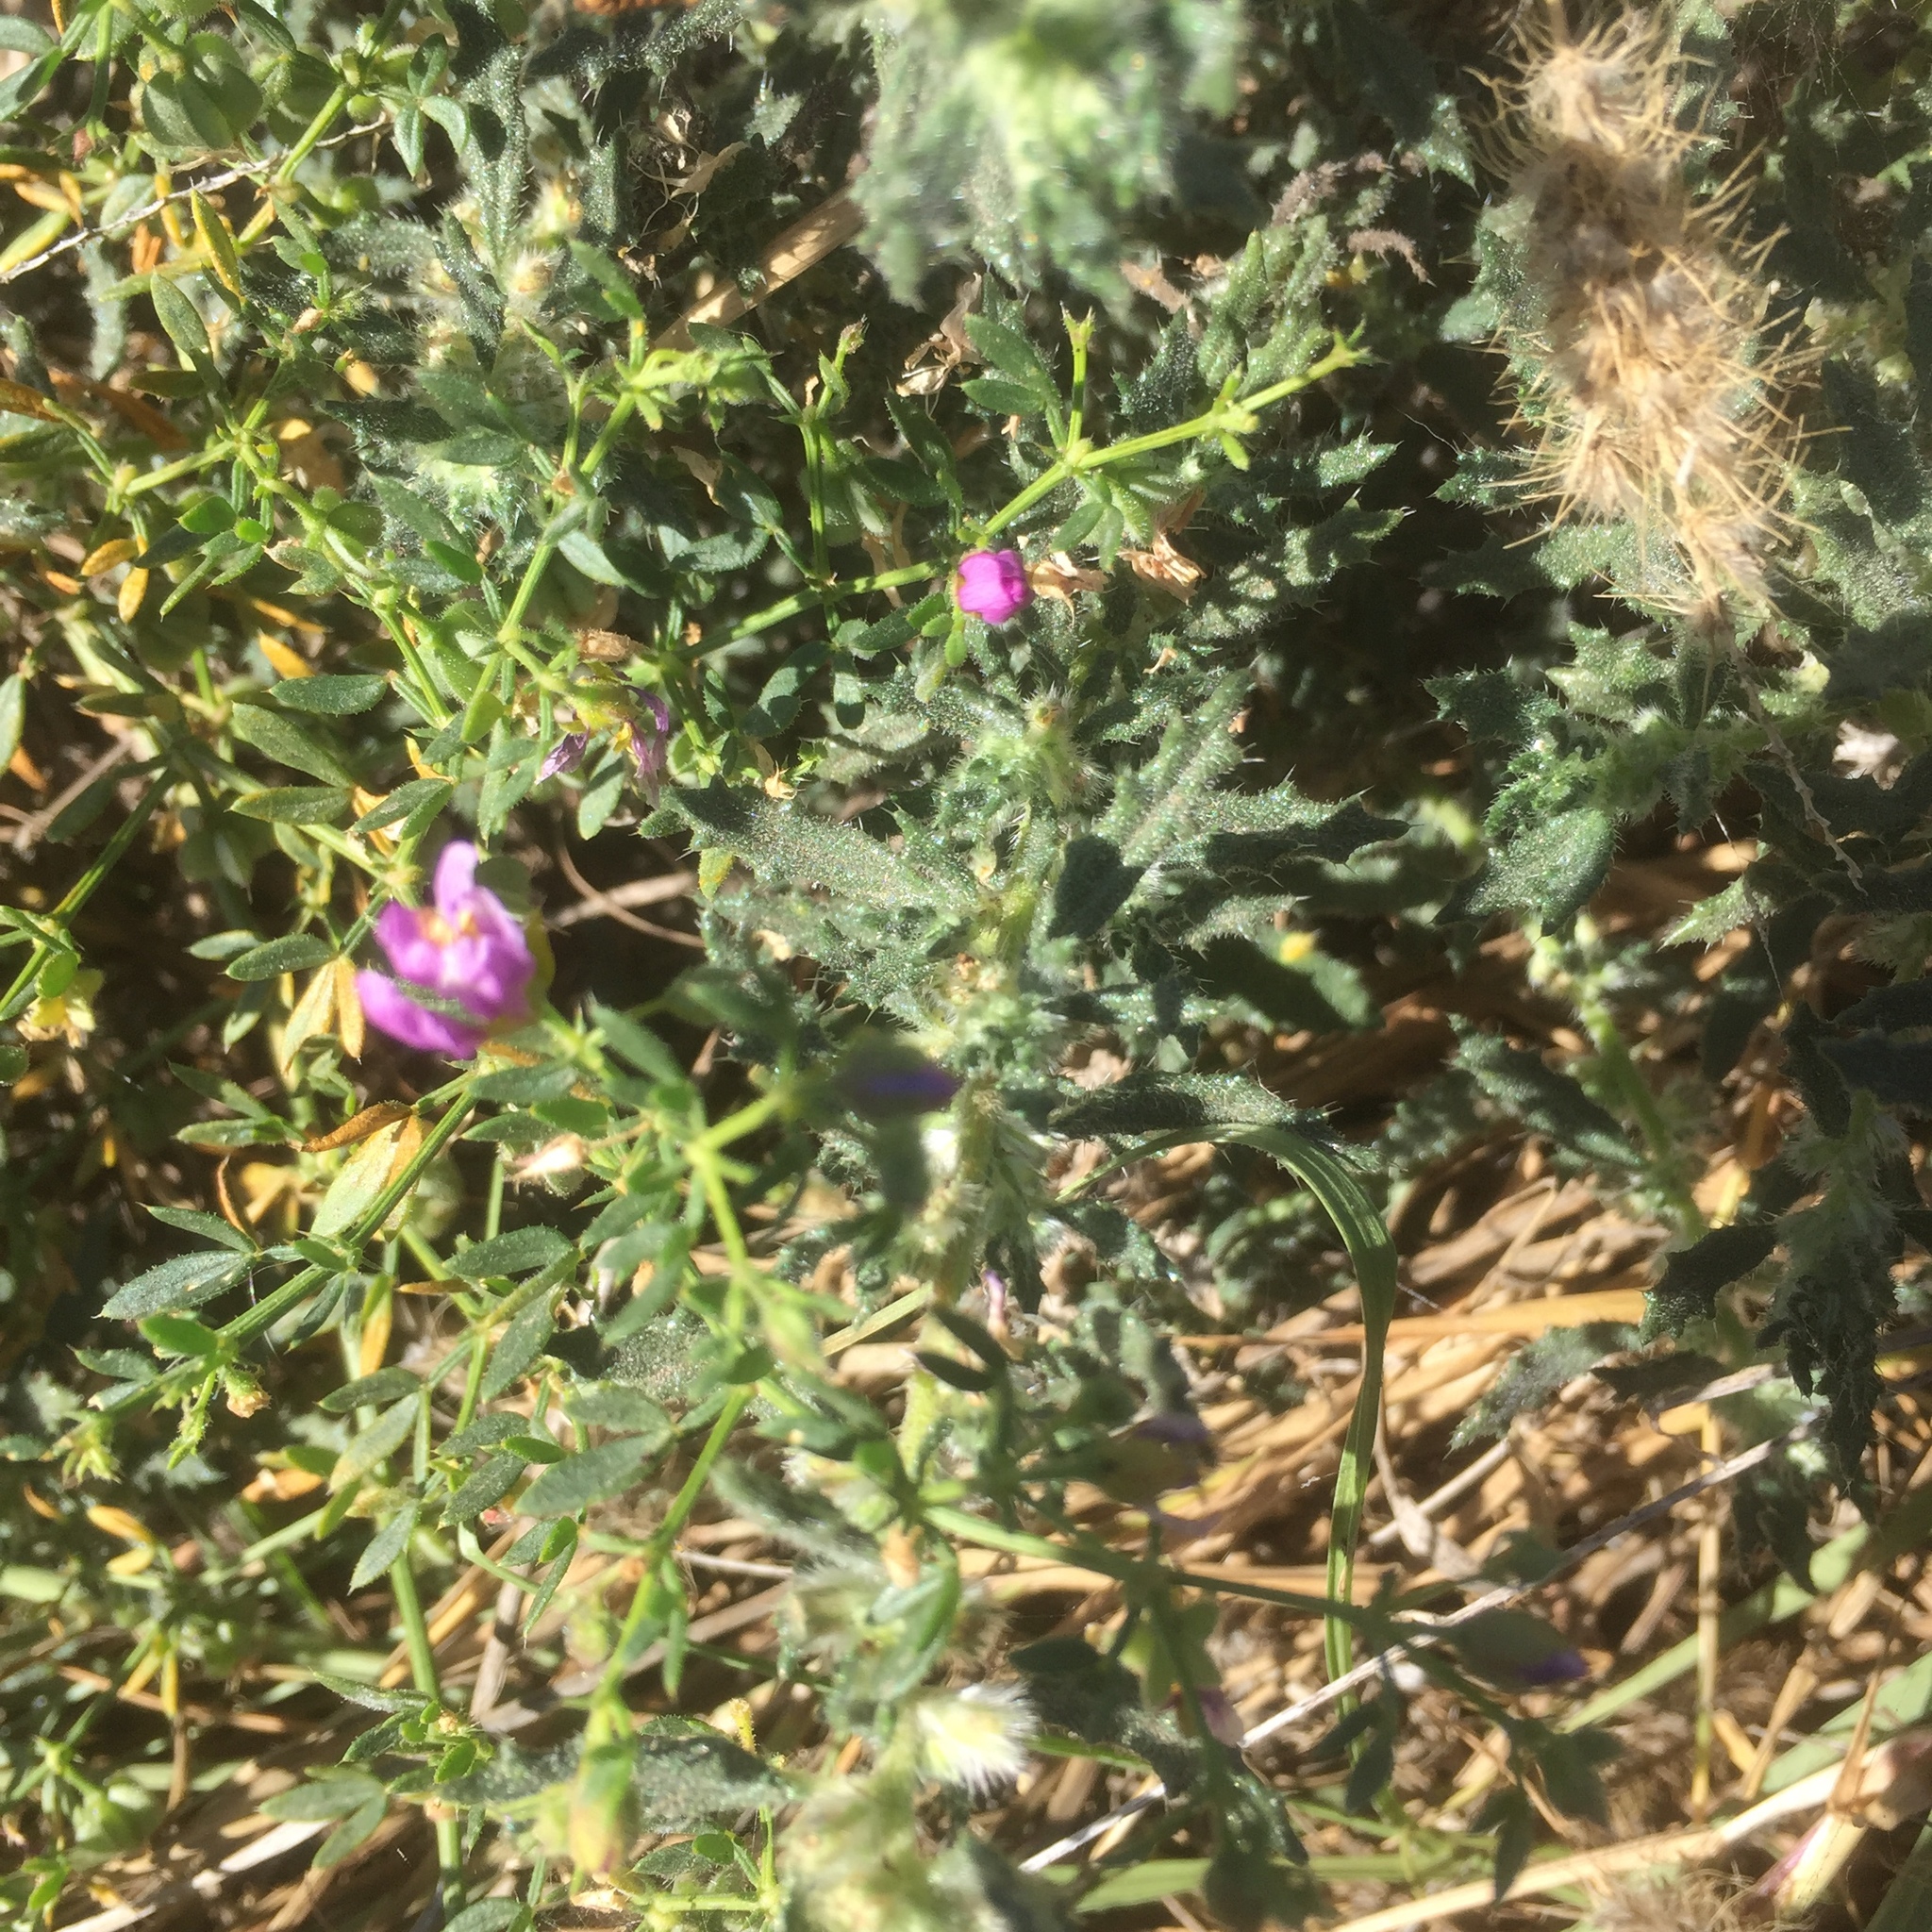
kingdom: Plantae
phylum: Tracheophyta
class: Magnoliopsida
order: Zygophyllales
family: Zygophyllaceae
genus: Fagonia
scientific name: Fagonia cretica
